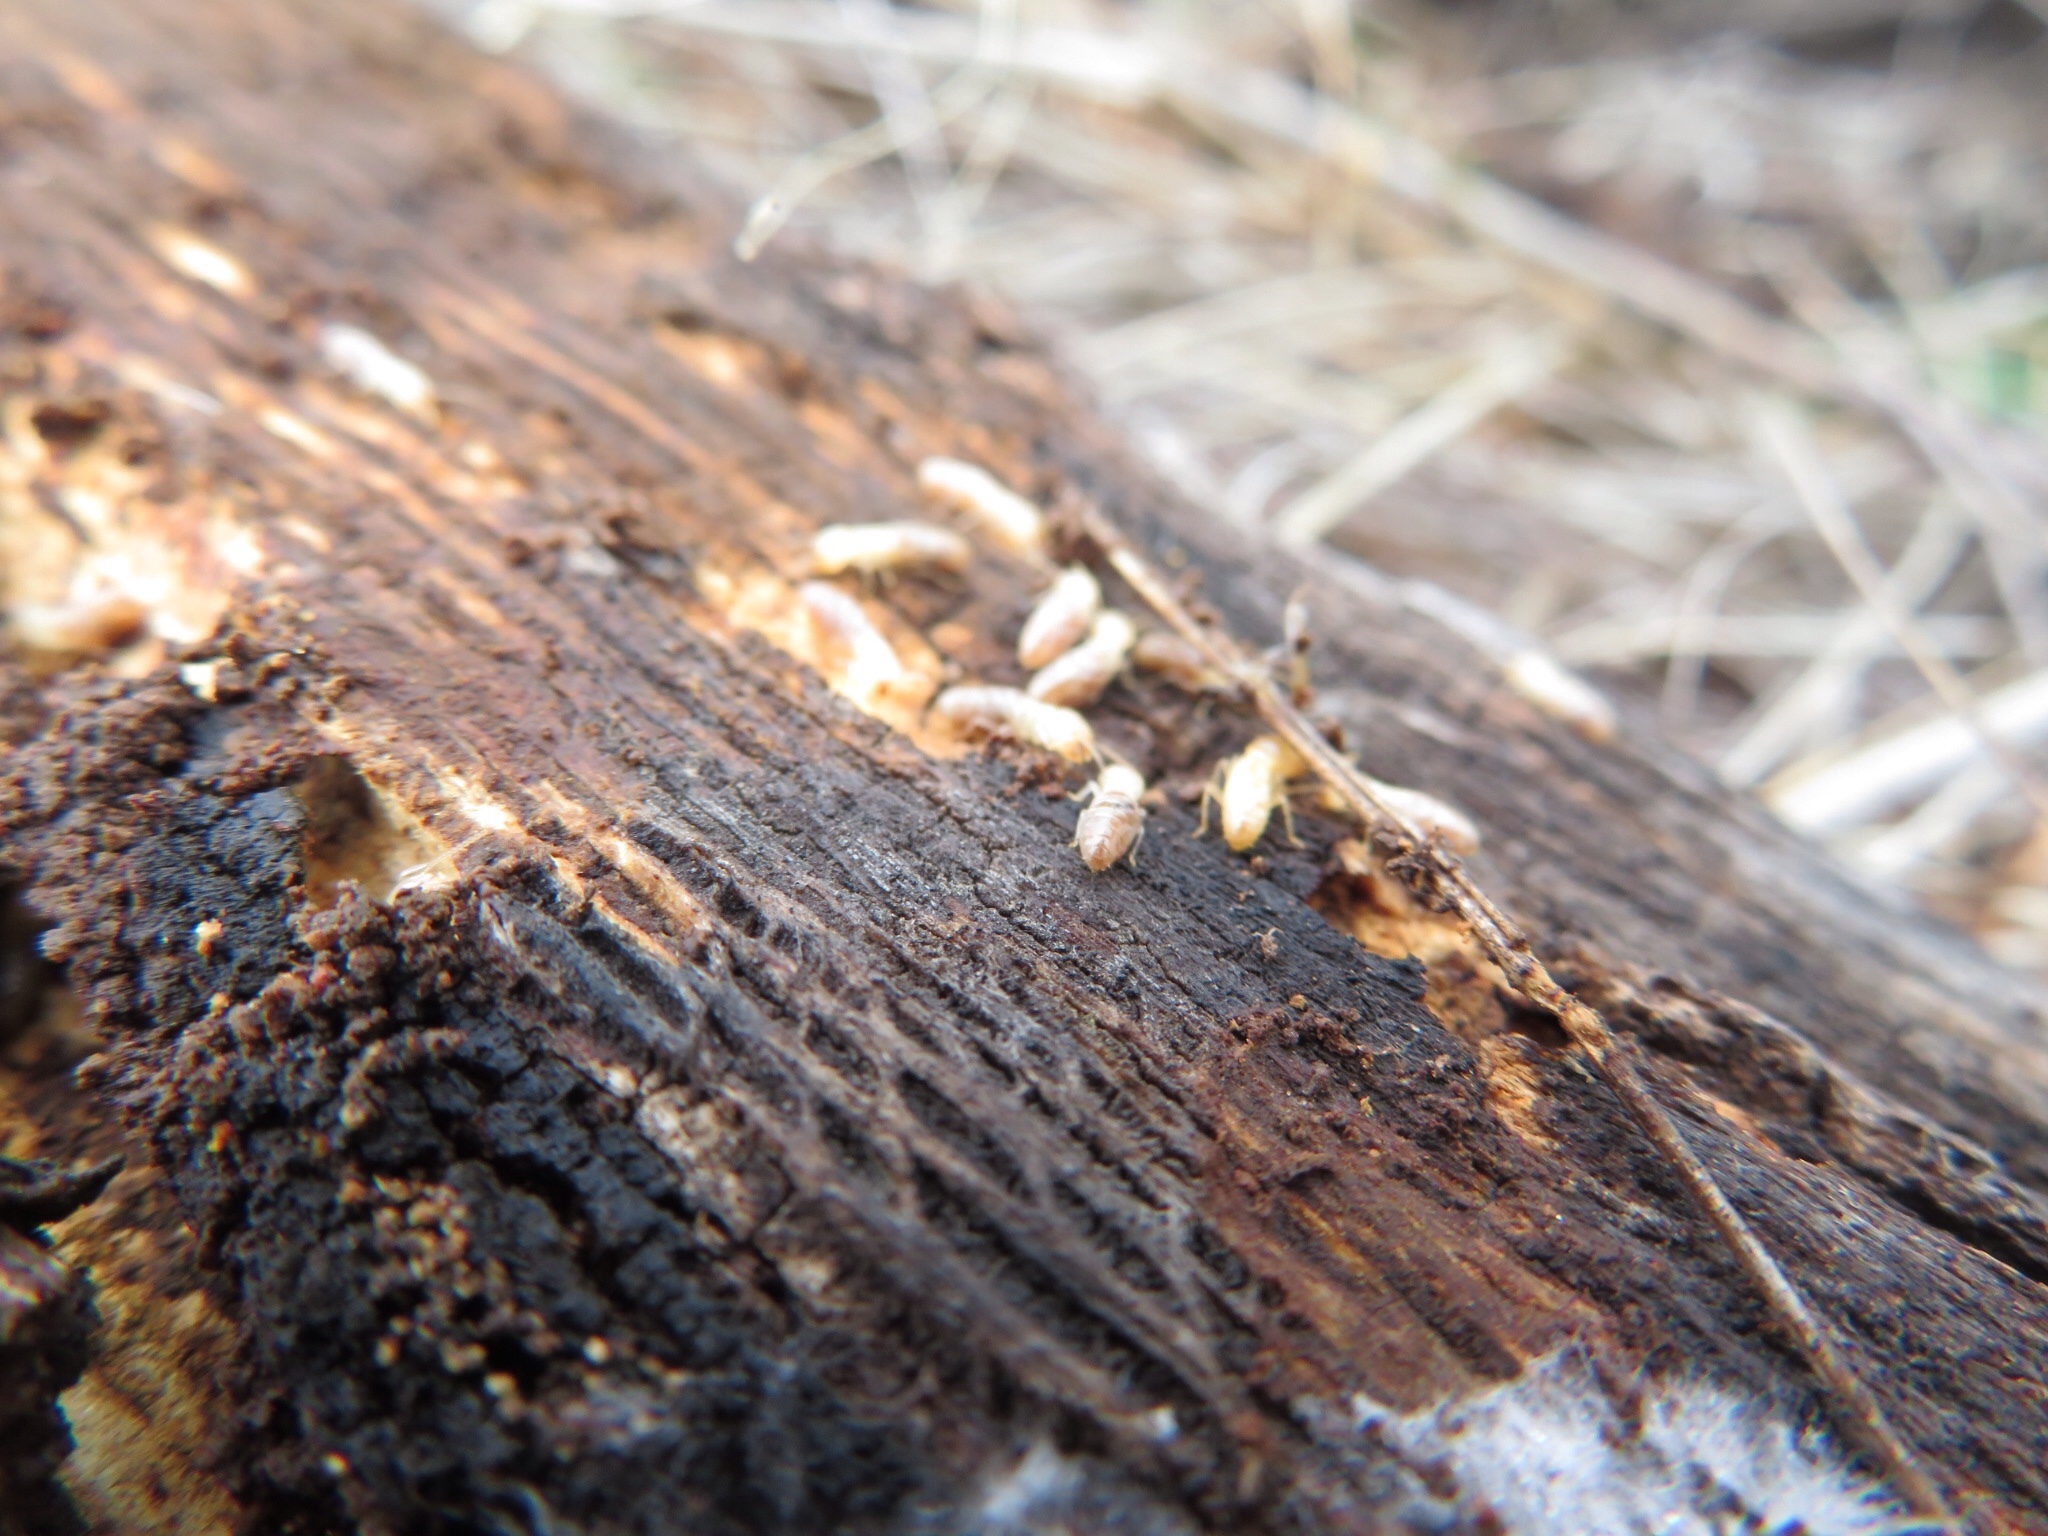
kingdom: Animalia
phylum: Arthropoda
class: Insecta
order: Blattodea
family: Rhinotermitidae
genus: Reticulitermes
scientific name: Reticulitermes flavipes
